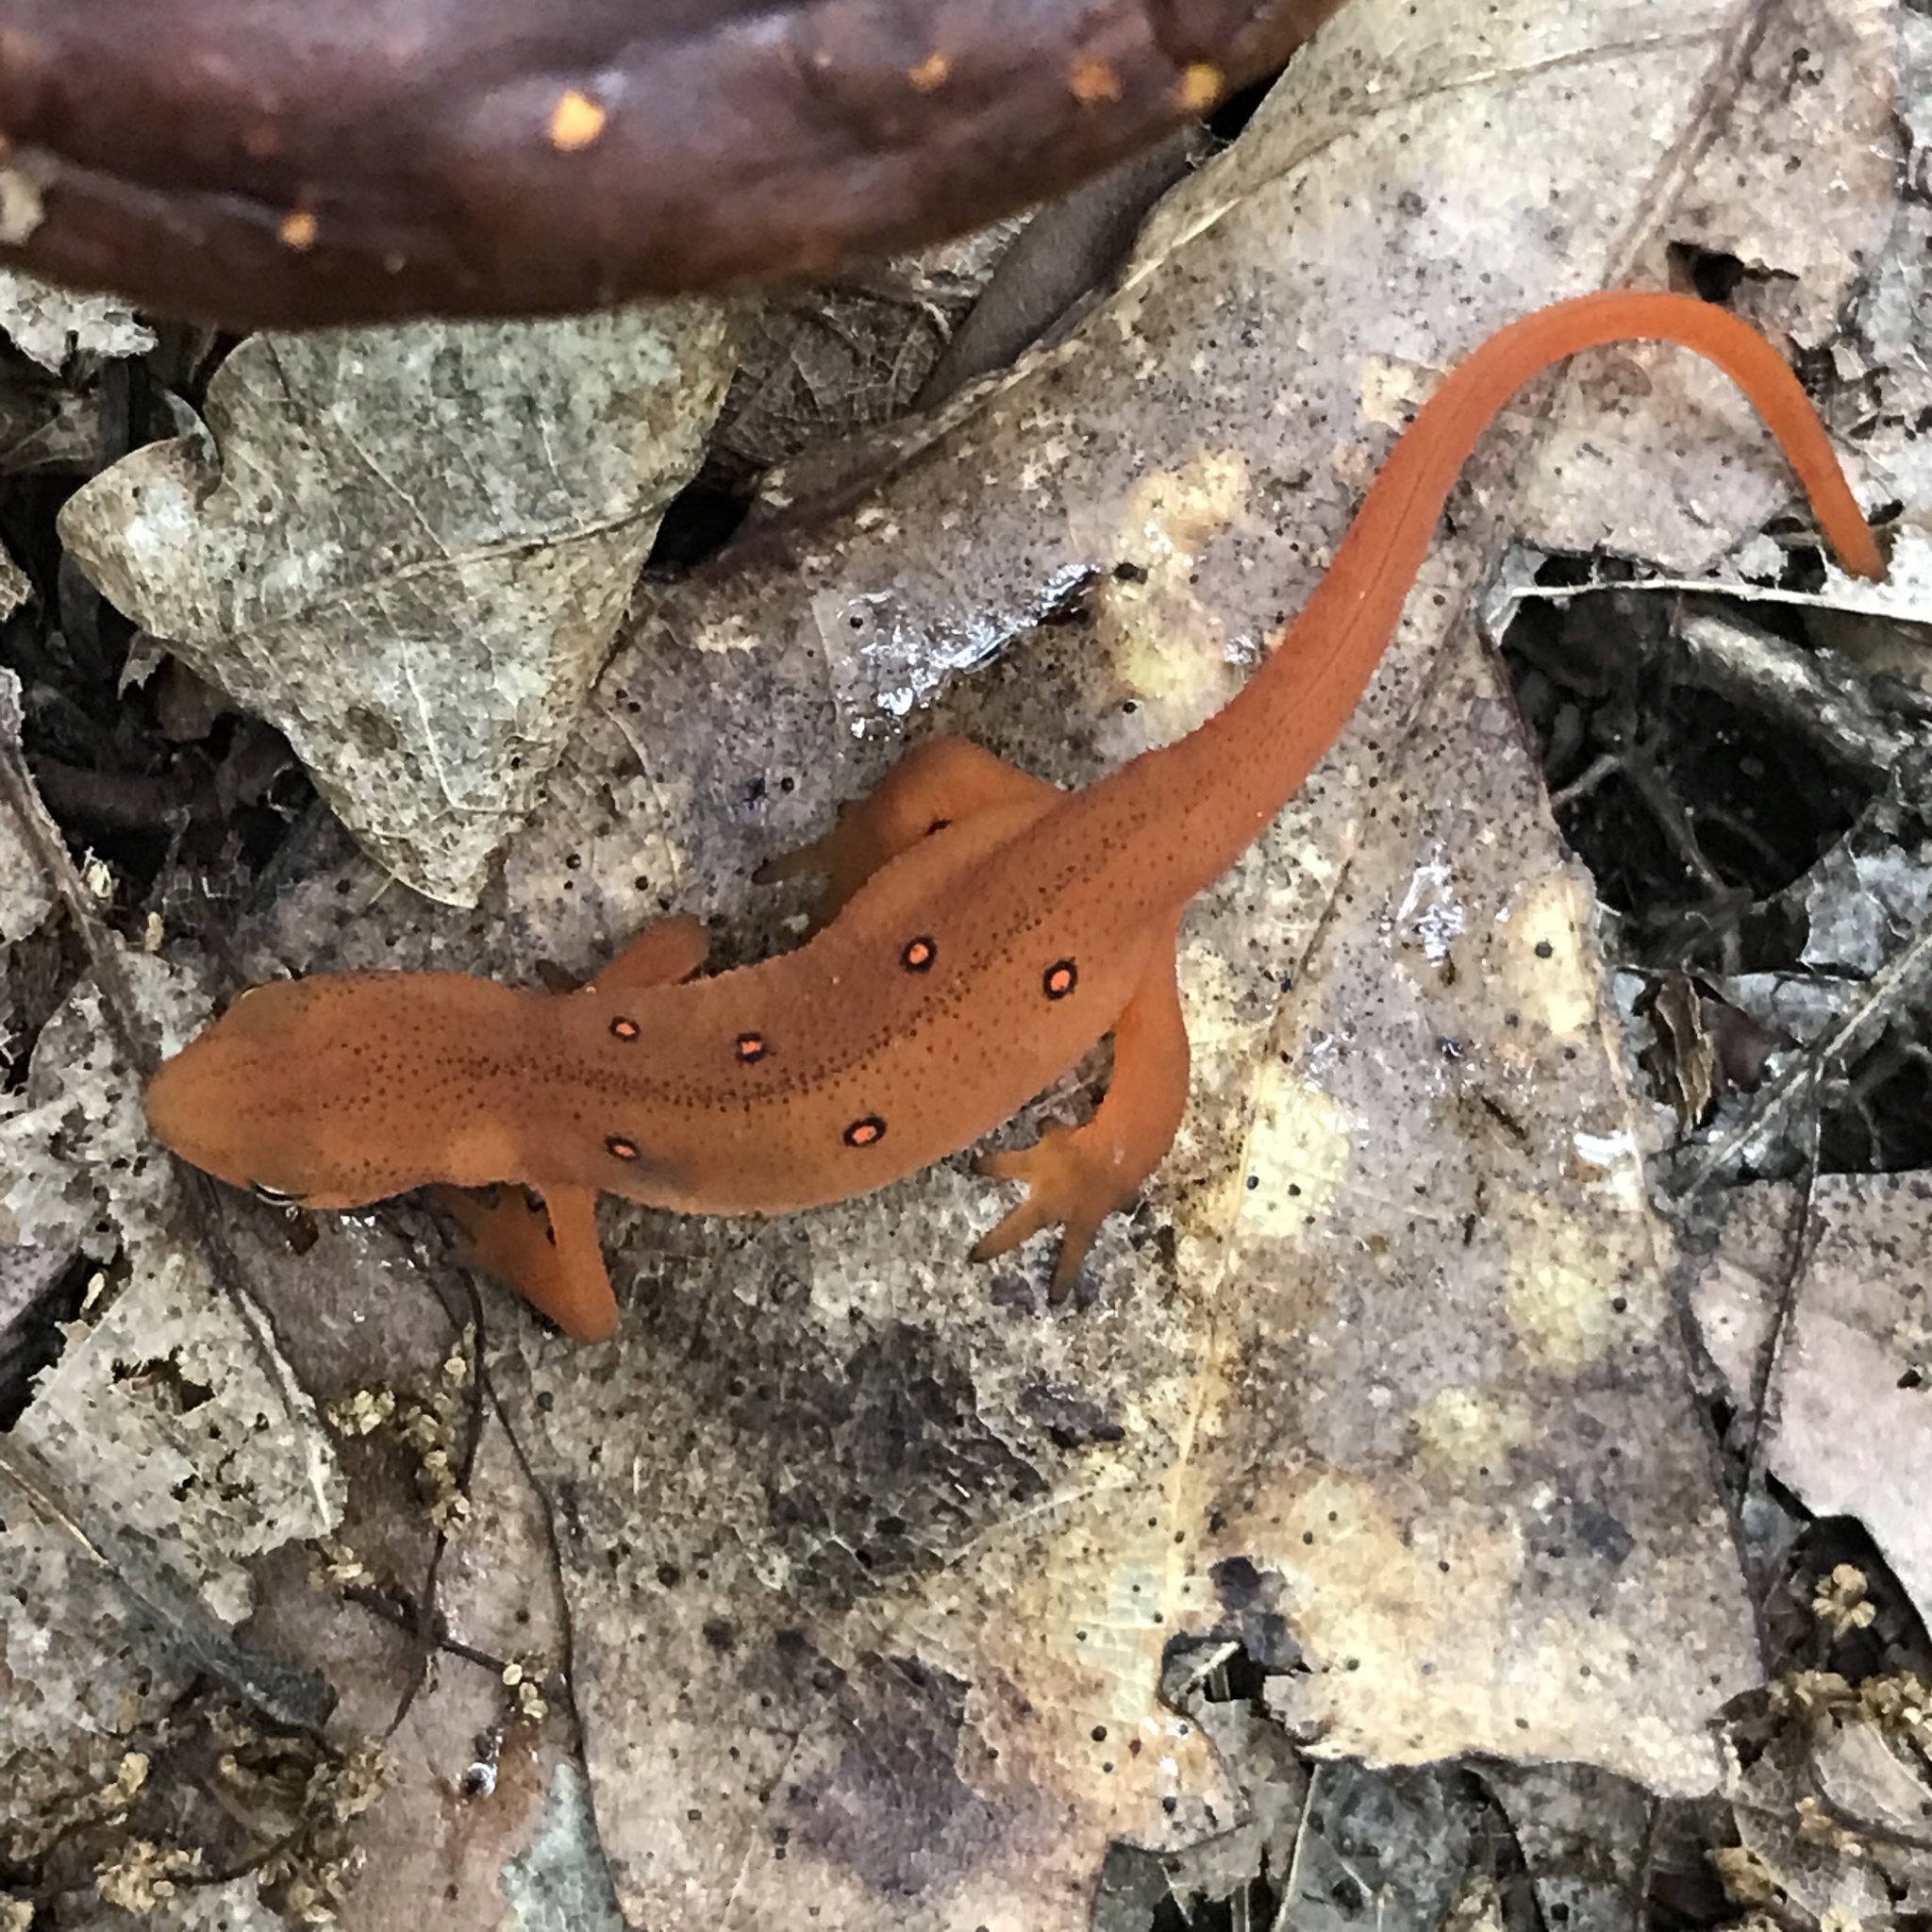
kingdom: Animalia
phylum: Chordata
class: Amphibia
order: Caudata
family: Salamandridae
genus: Notophthalmus
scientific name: Notophthalmus viridescens
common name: Eastern newt
